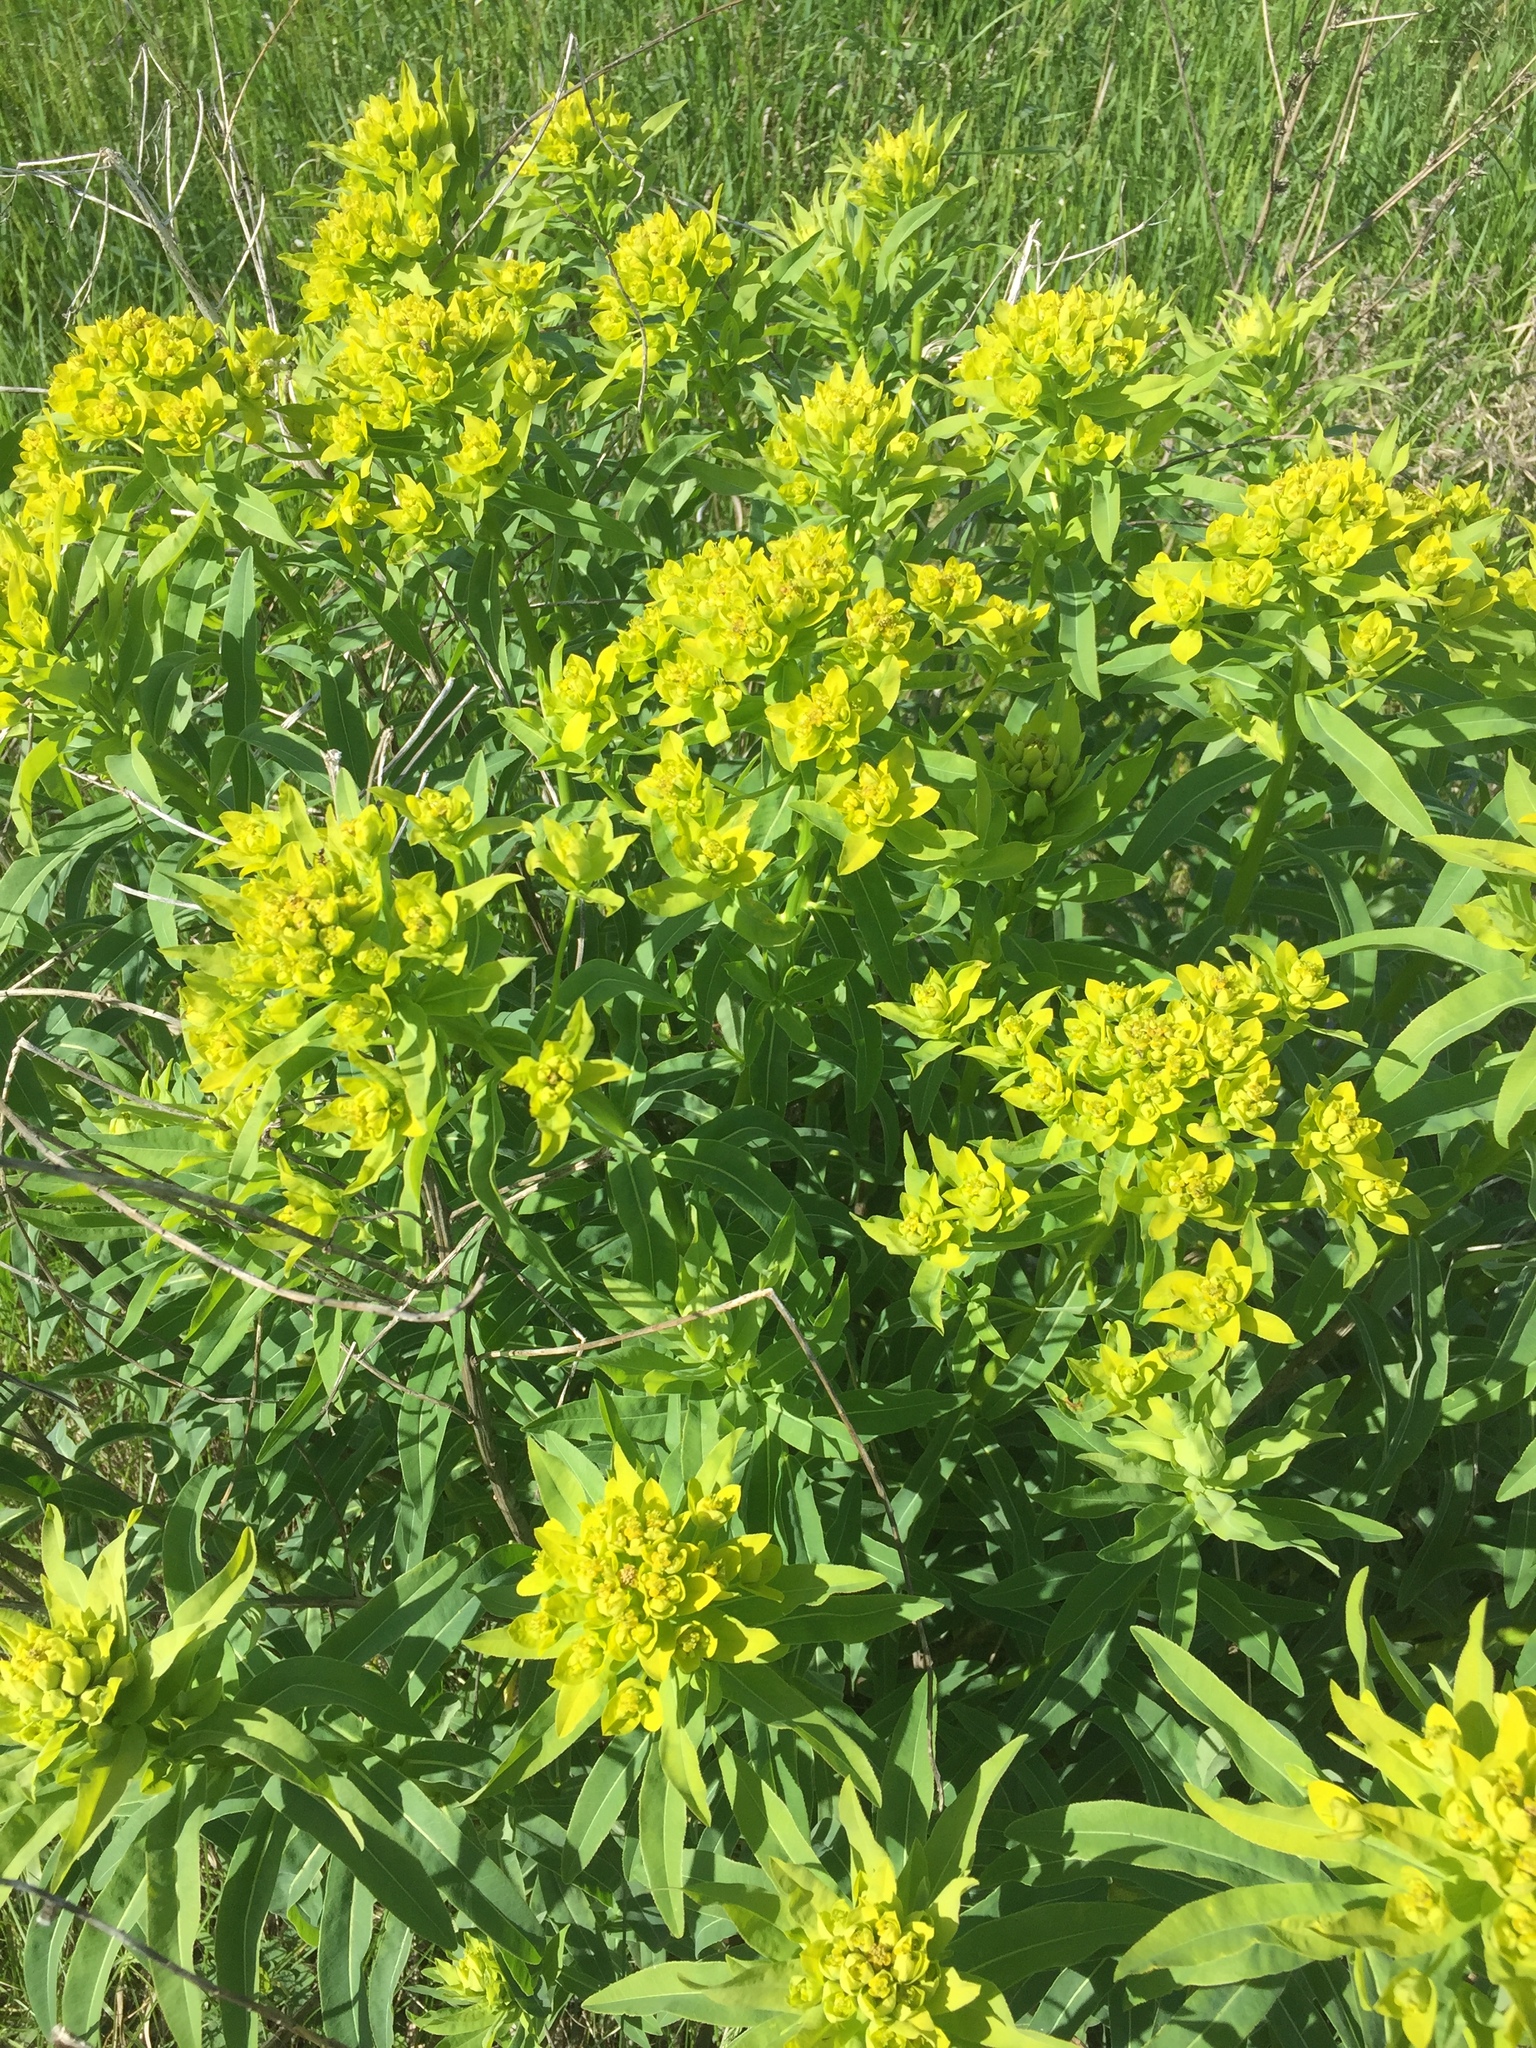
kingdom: Plantae
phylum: Tracheophyta
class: Magnoliopsida
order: Malpighiales
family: Euphorbiaceae
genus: Euphorbia
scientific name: Euphorbia semivillosa
